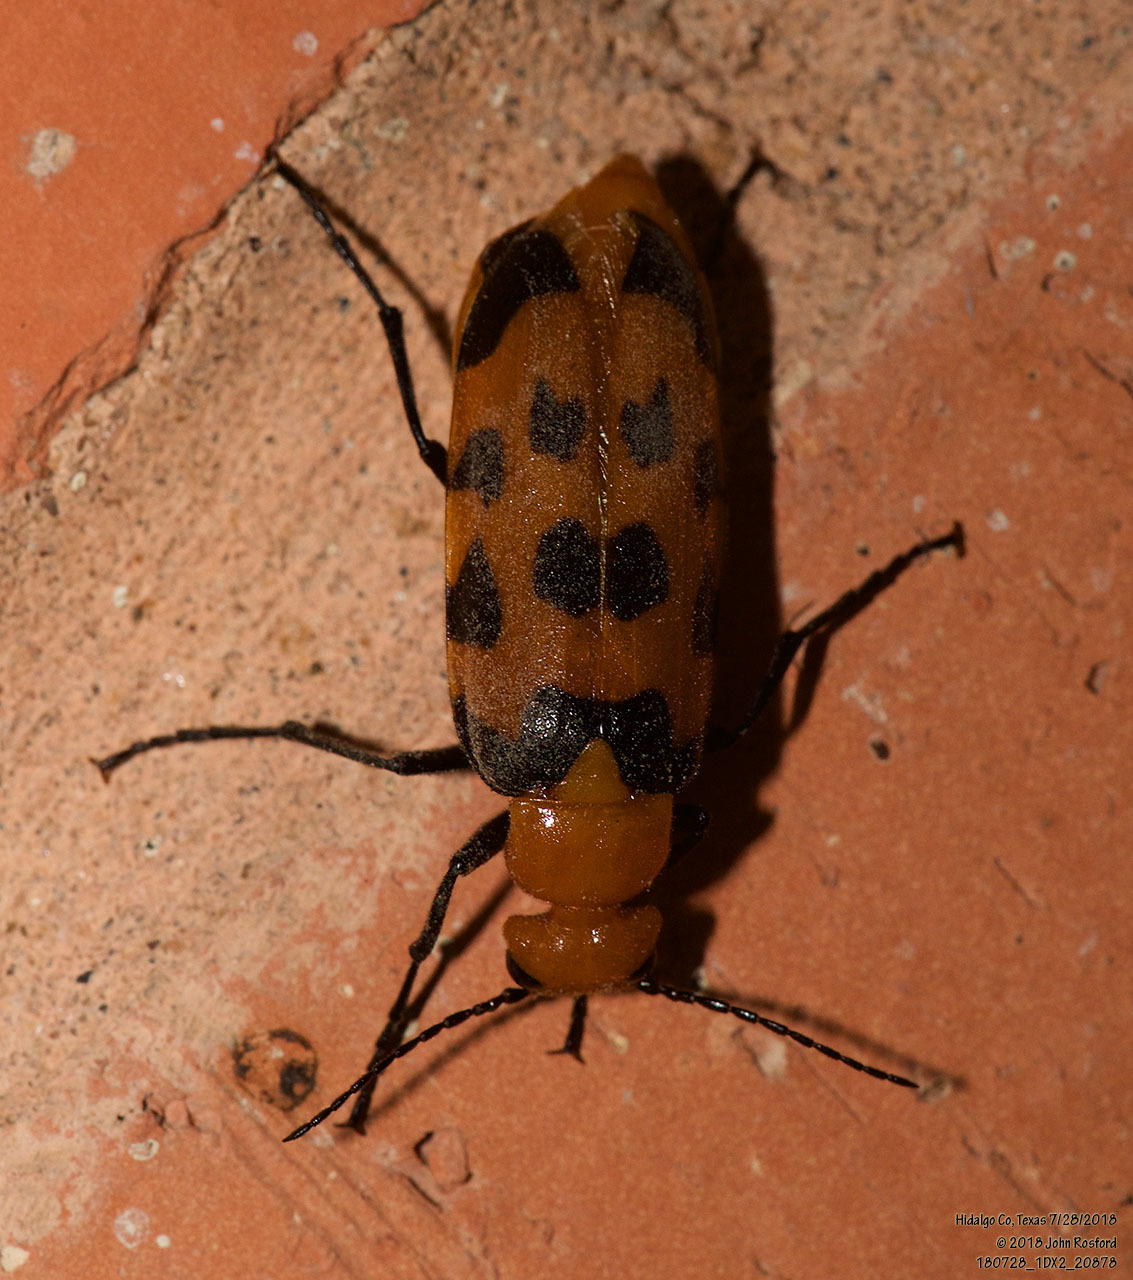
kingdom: Animalia
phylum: Arthropoda
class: Insecta
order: Coleoptera
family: Meloidae
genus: Cissites
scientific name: Cissites auriculata
